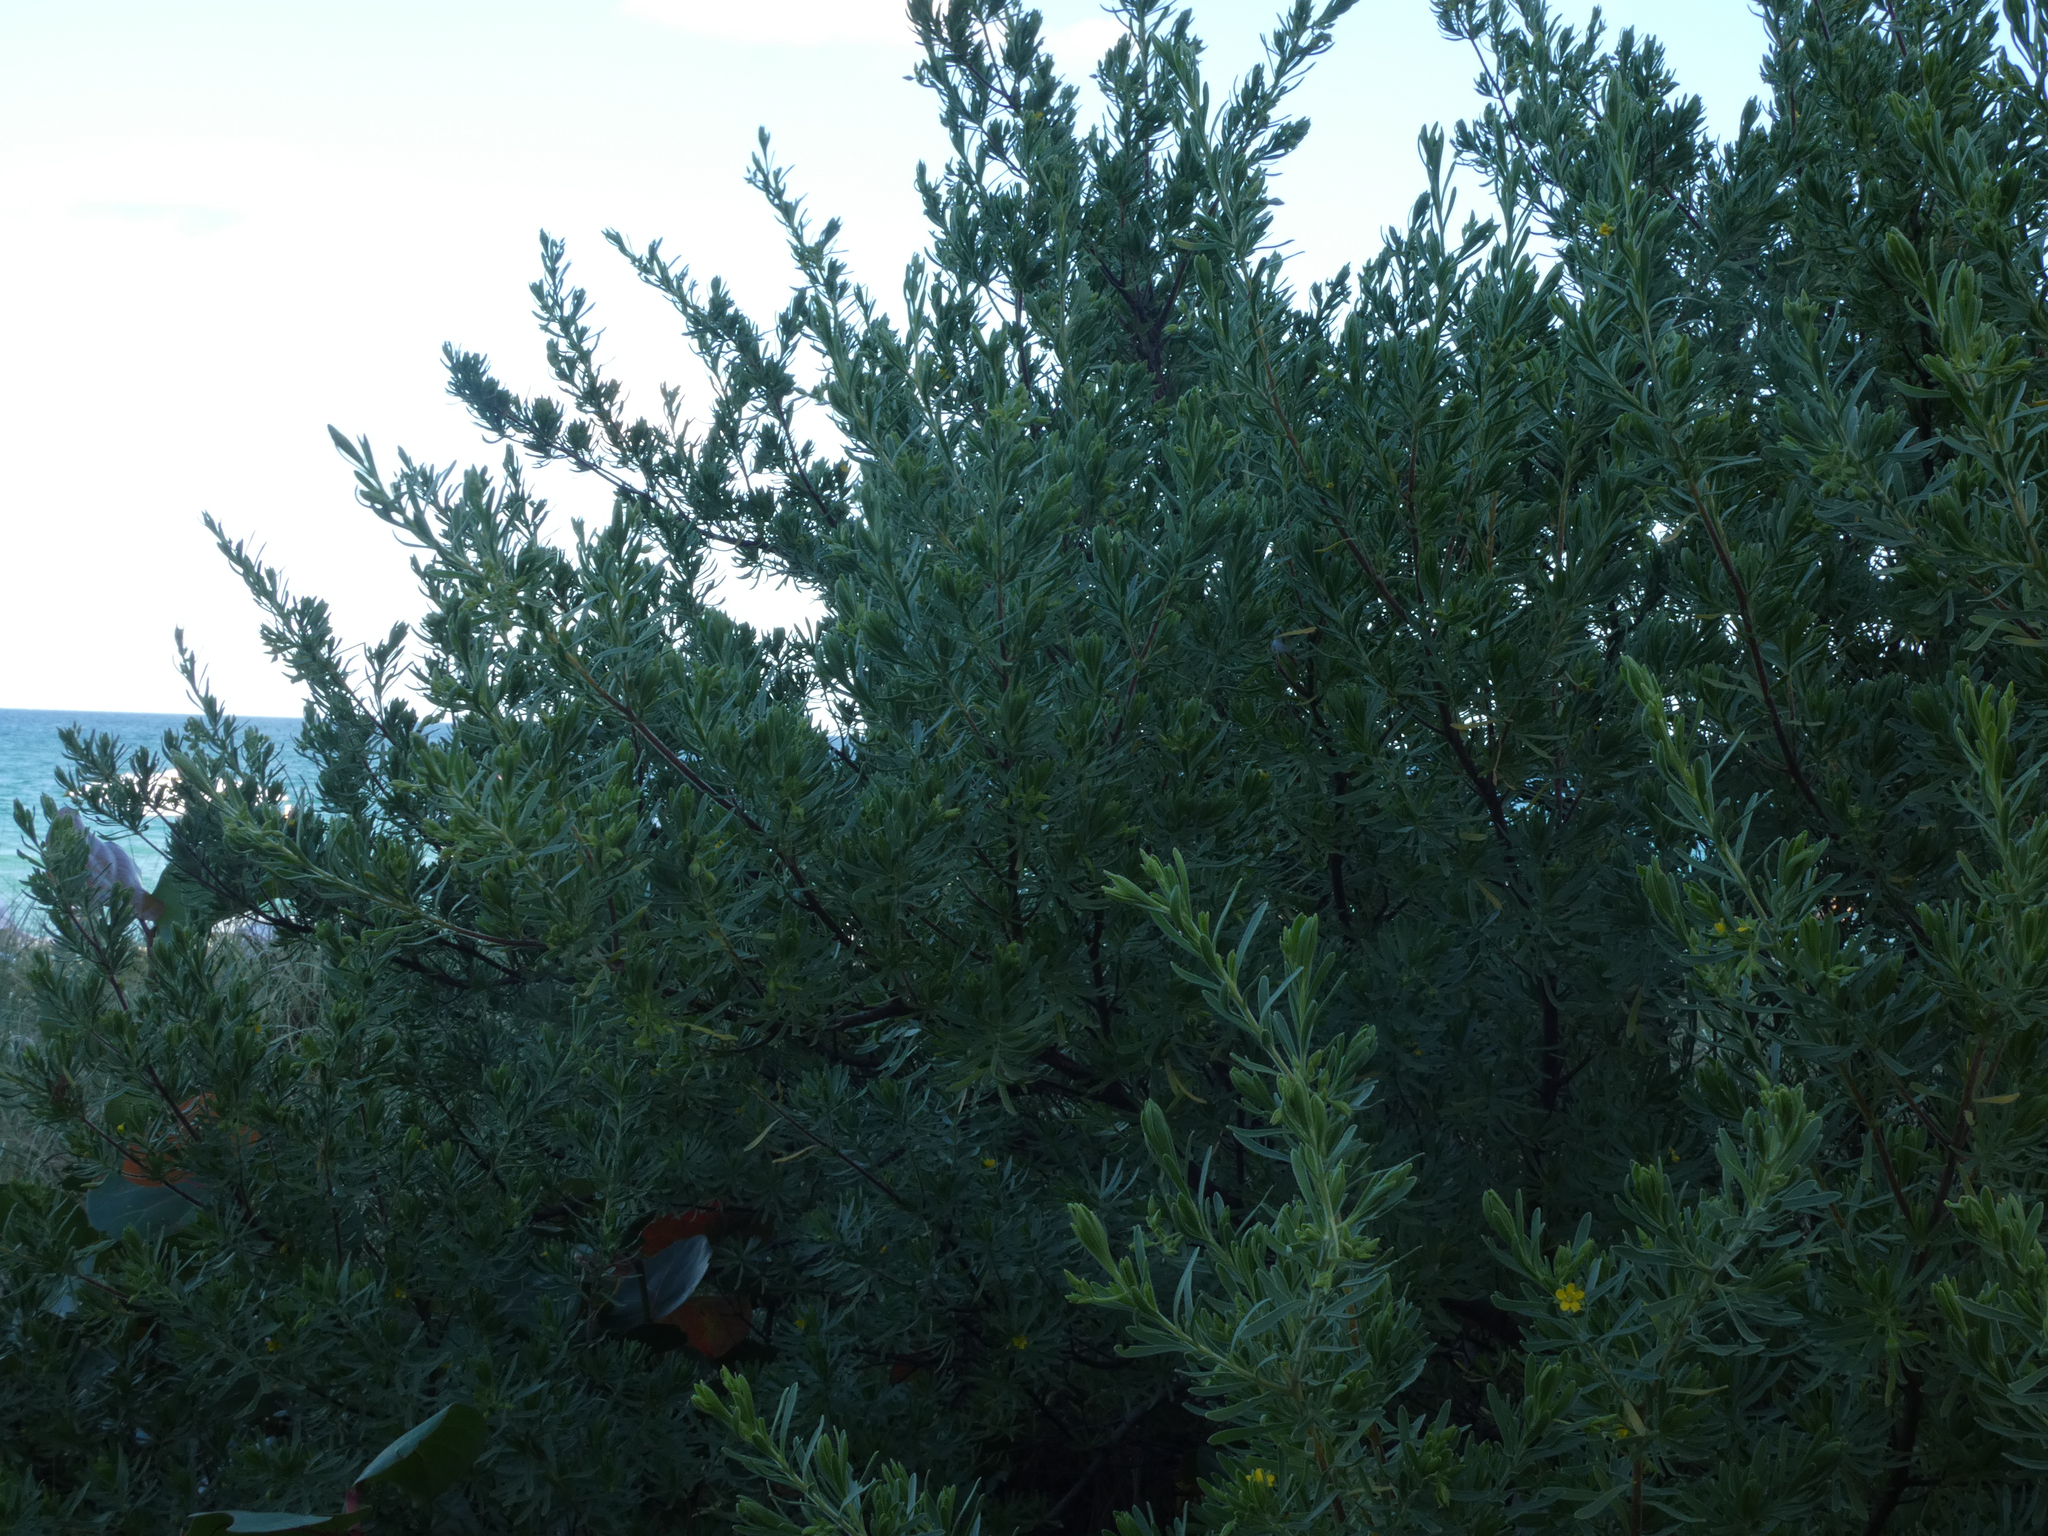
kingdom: Plantae
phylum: Tracheophyta
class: Magnoliopsida
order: Fabales
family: Surianaceae
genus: Suriana
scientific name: Suriana maritima
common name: Bay-cedar
